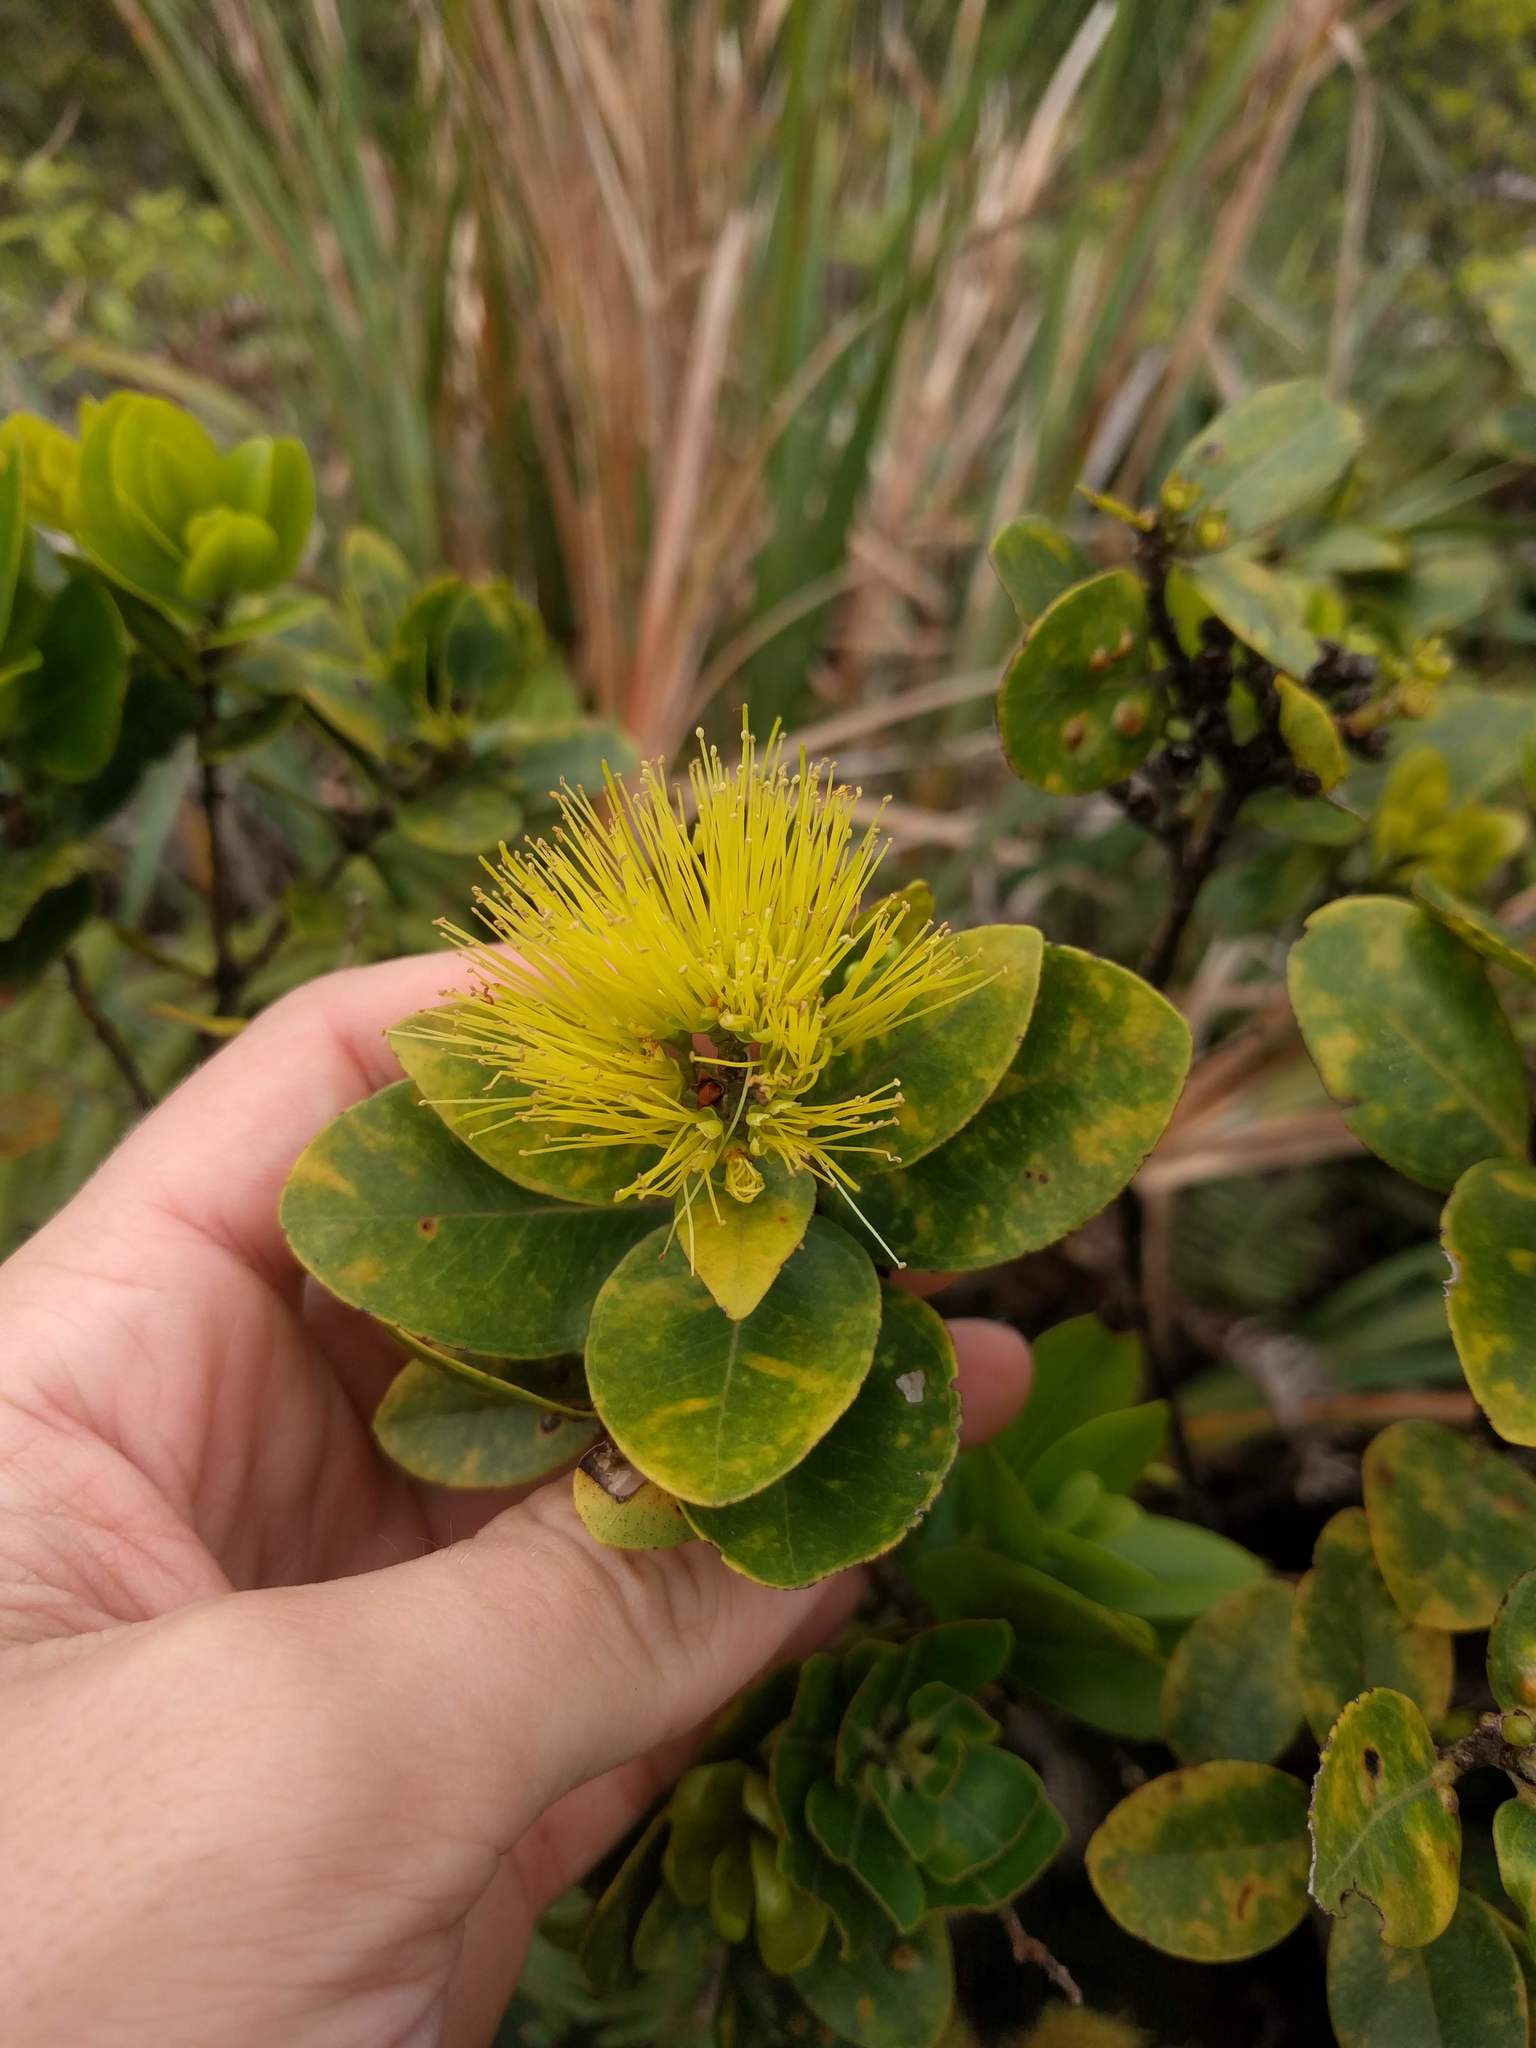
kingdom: Plantae
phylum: Tracheophyta
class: Magnoliopsida
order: Myrtales
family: Myrtaceae
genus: Metrosideros
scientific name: Metrosideros polymorpha
